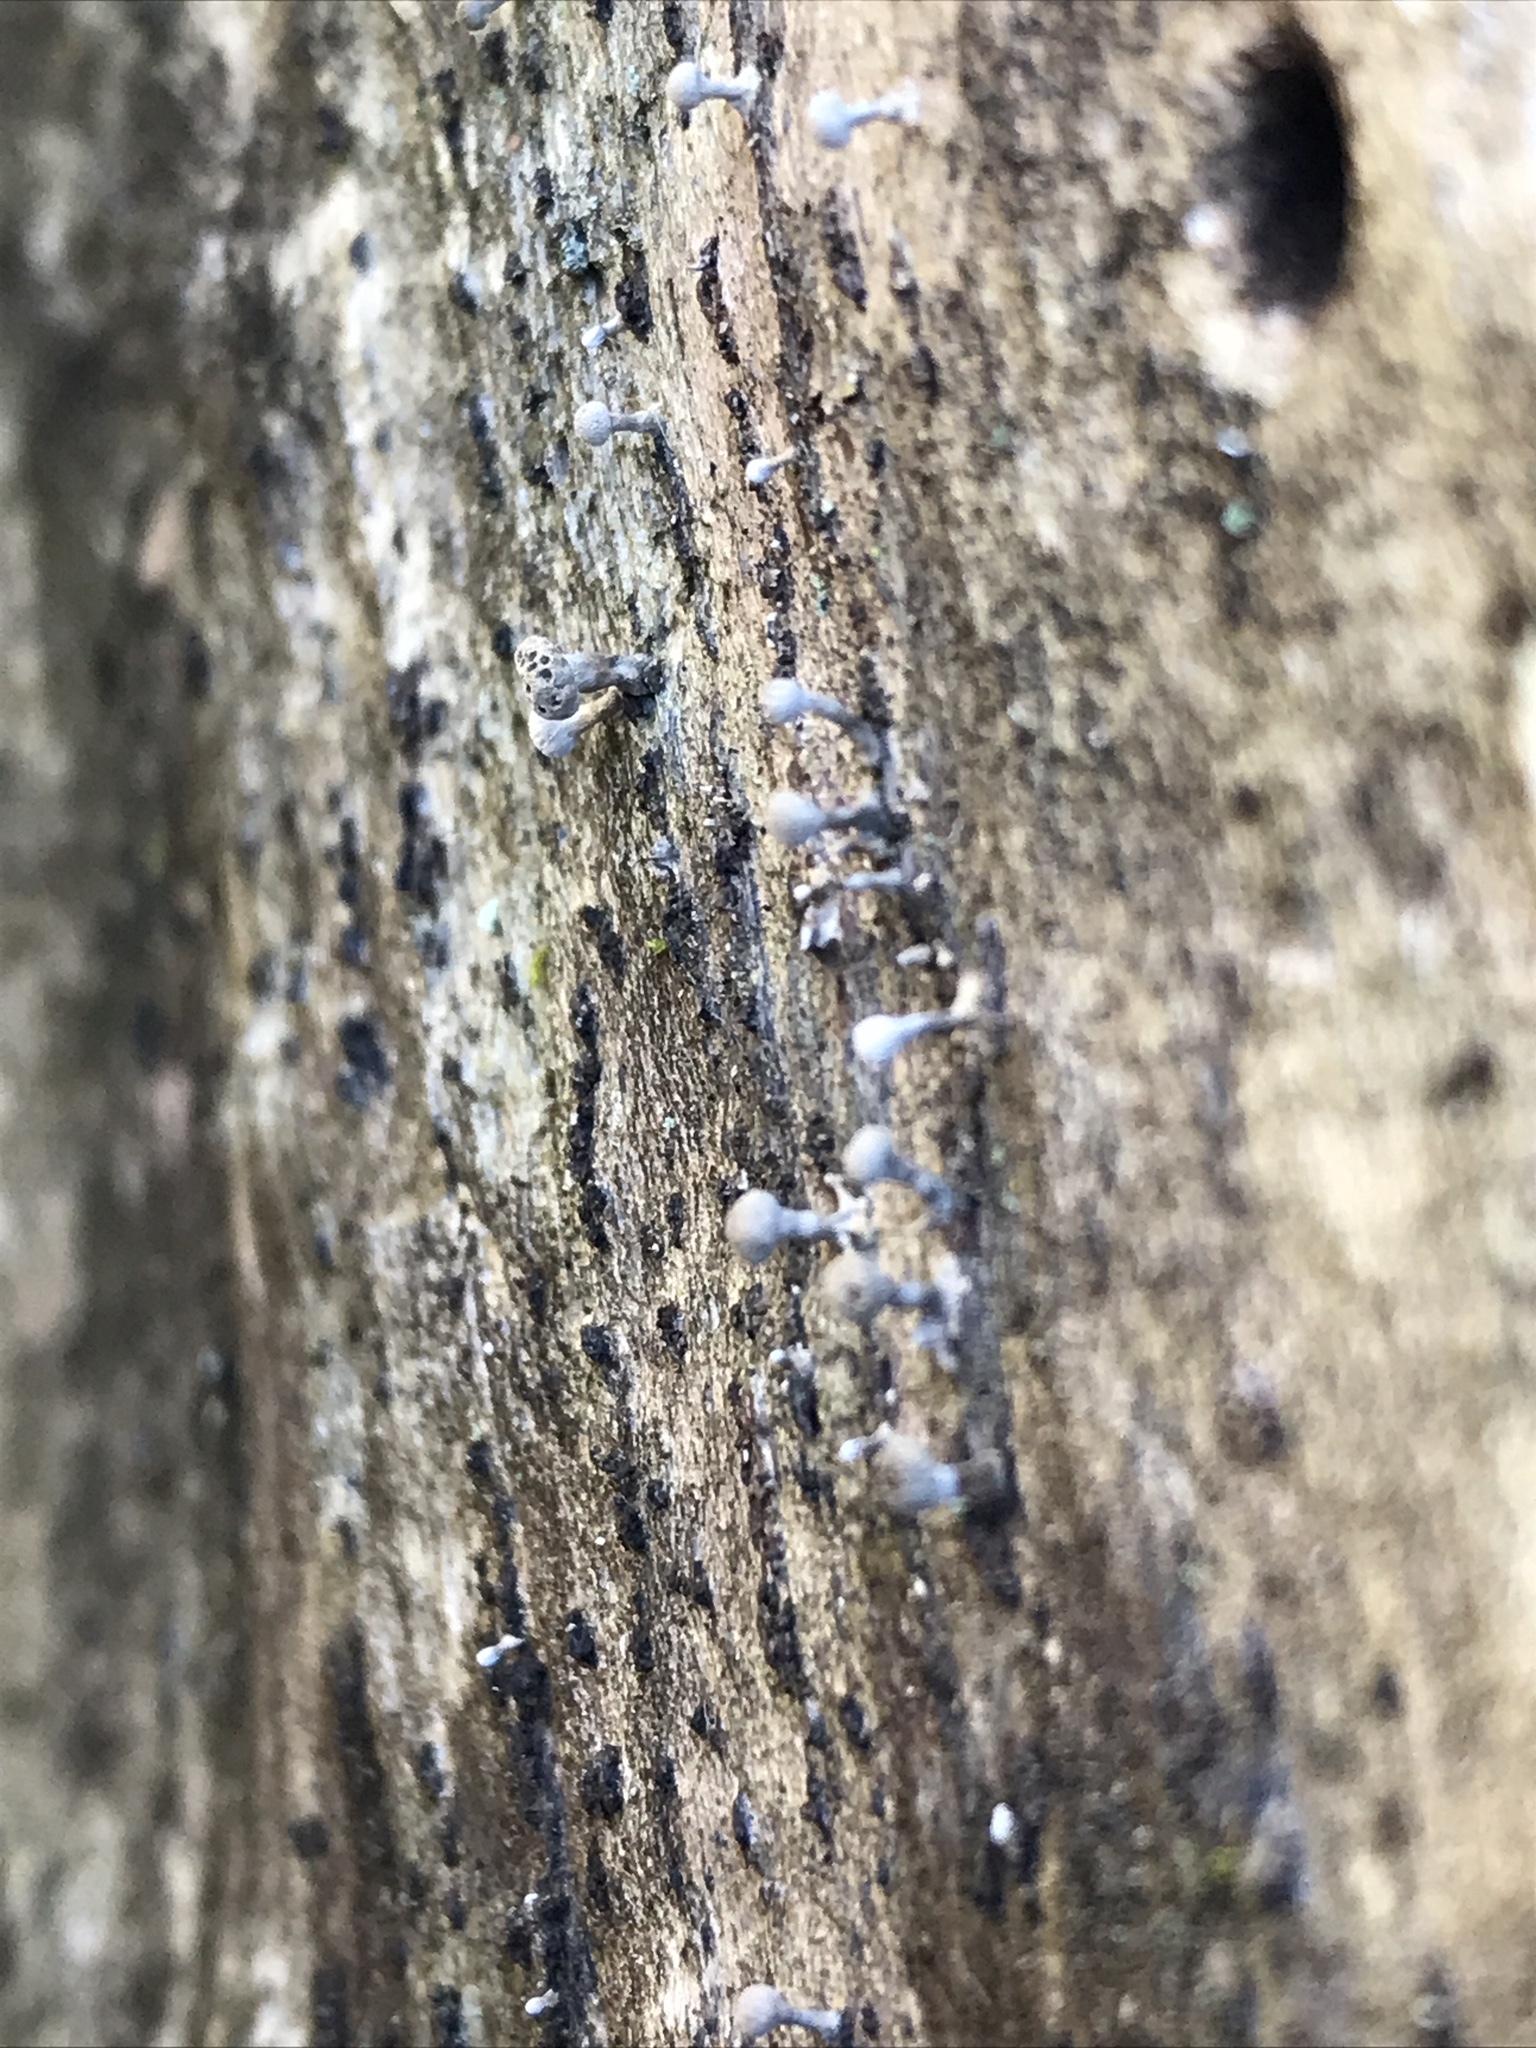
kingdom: Fungi
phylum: Basidiomycota
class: Atractiellomycetes
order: Atractiellales
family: Phleogenaceae
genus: Phleogena
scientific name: Phleogena faginea
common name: Fenugreek stalkball
